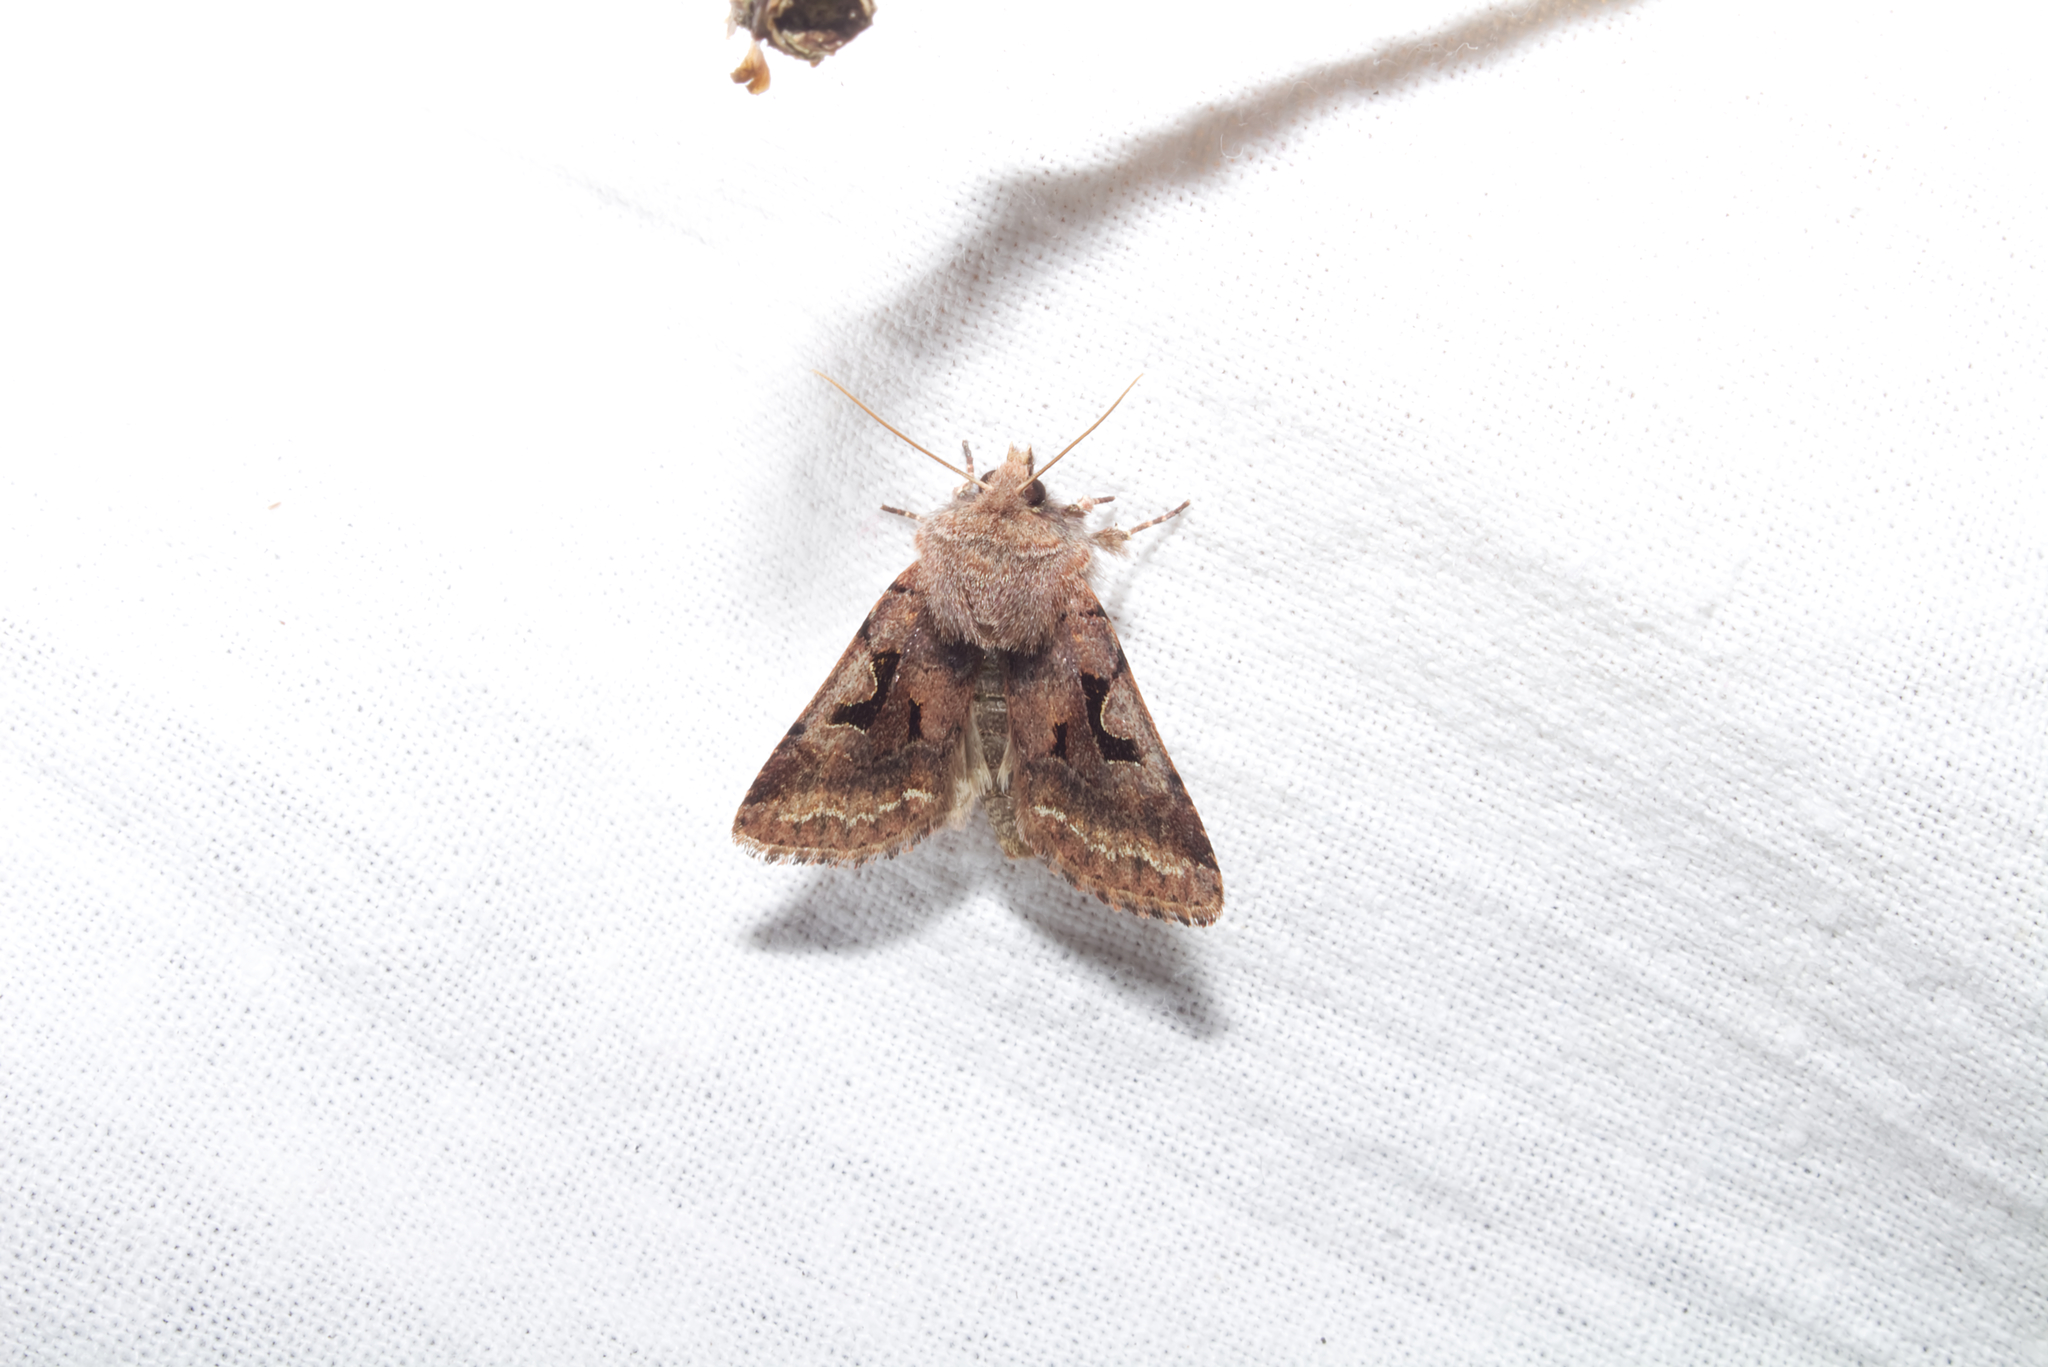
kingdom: Animalia
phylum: Arthropoda
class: Insecta
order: Lepidoptera
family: Noctuidae
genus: Orthosia
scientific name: Orthosia gothica
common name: Hebrew character
